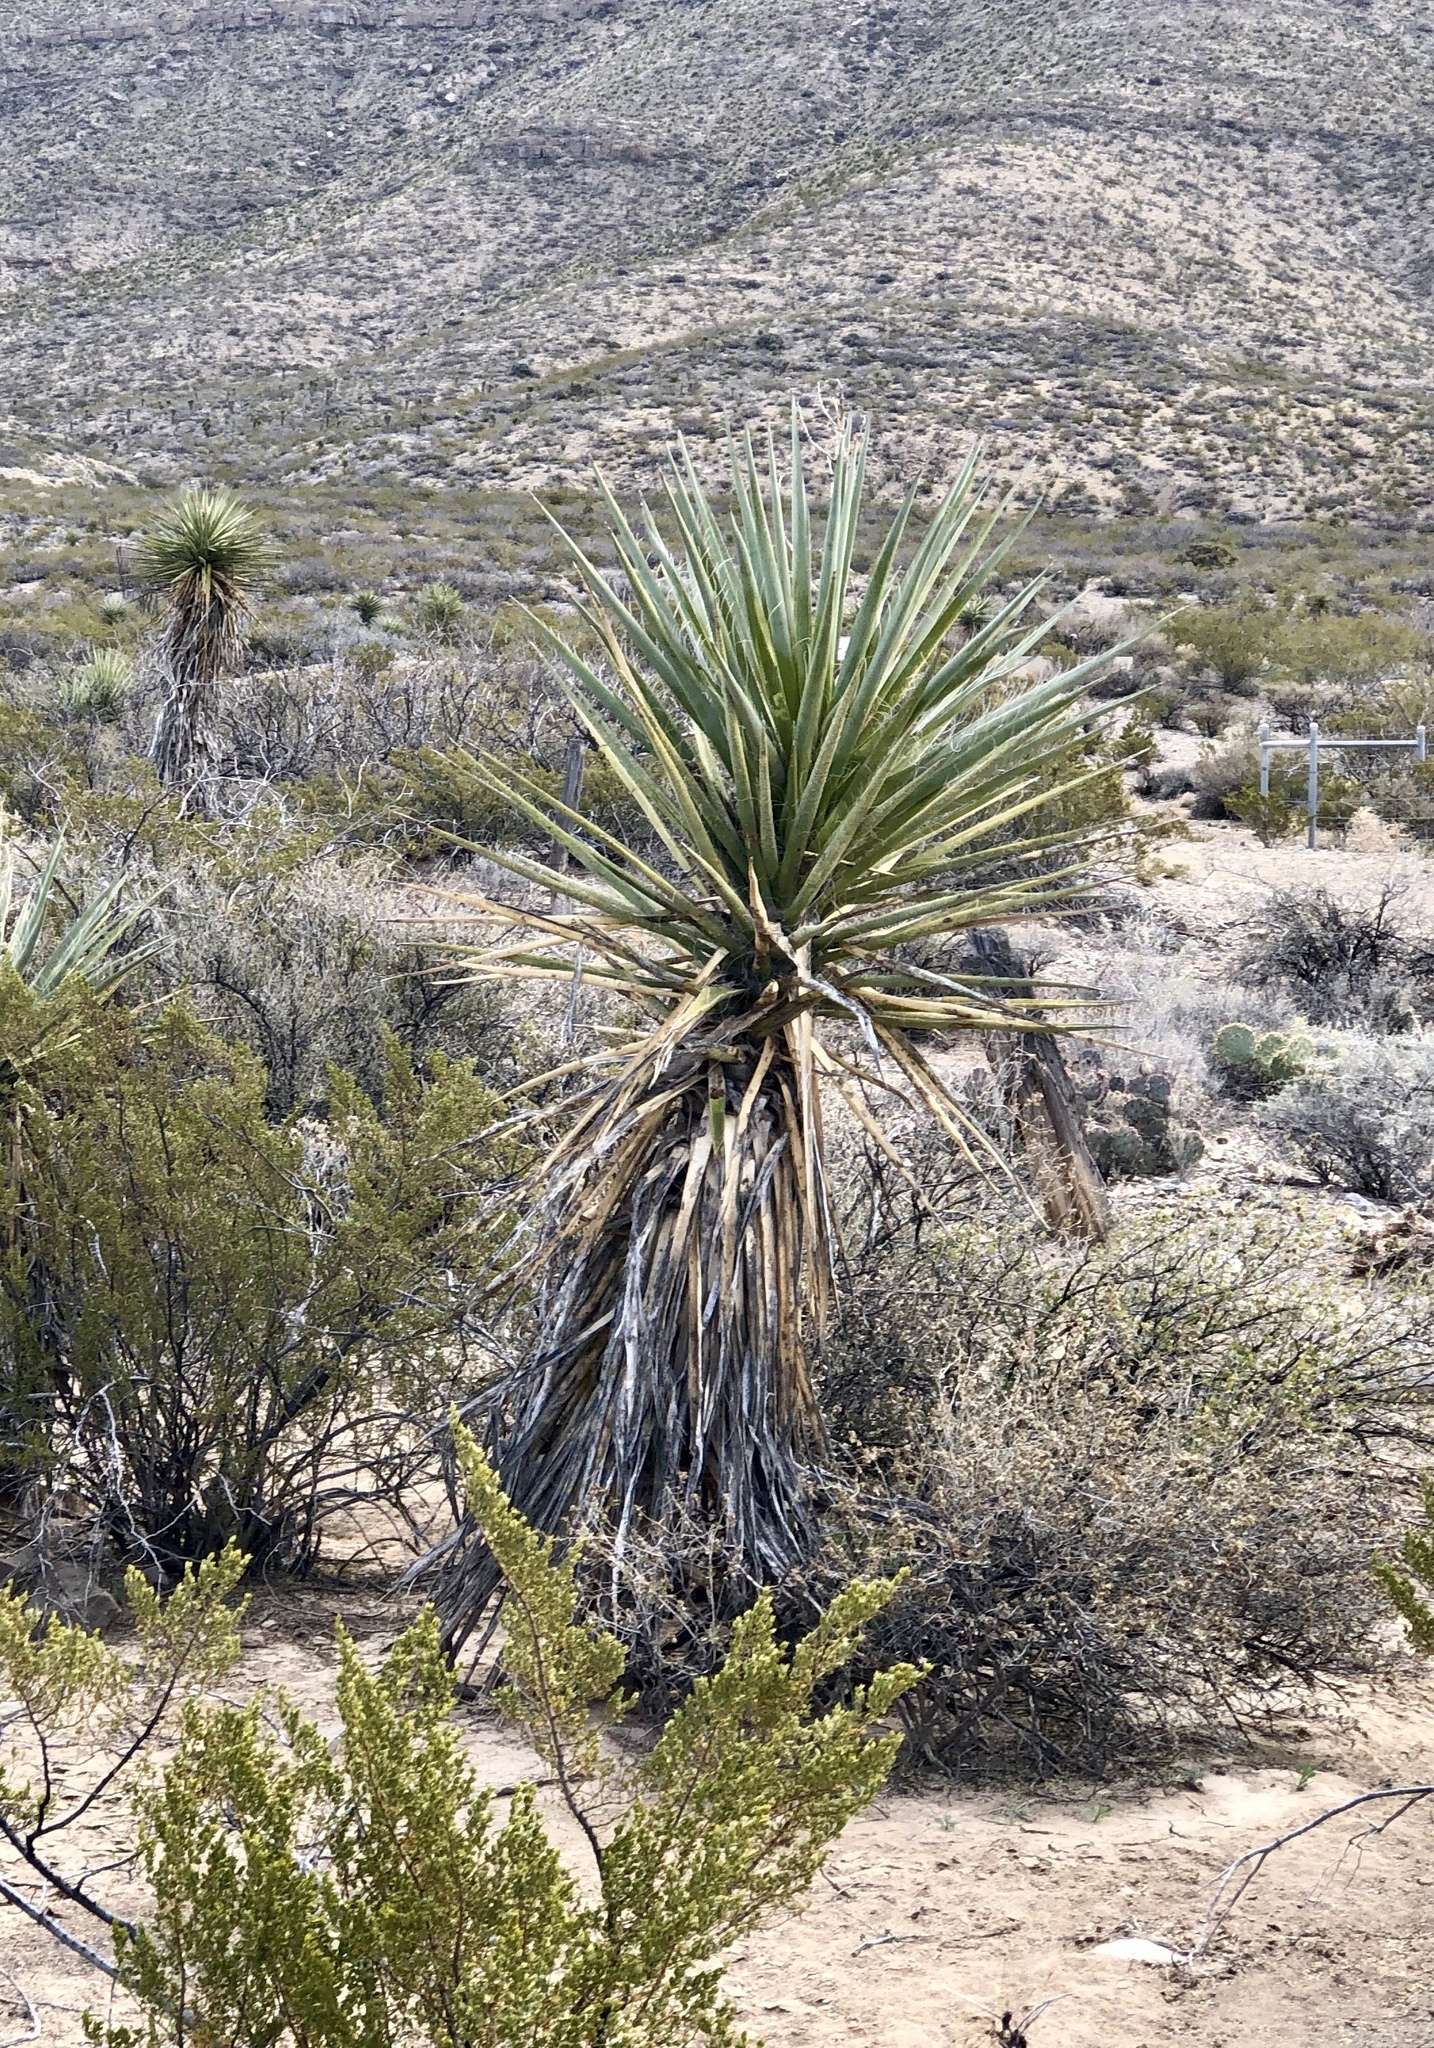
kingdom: Plantae
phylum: Tracheophyta
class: Liliopsida
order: Asparagales
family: Asparagaceae
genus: Yucca
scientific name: Yucca treculiana
